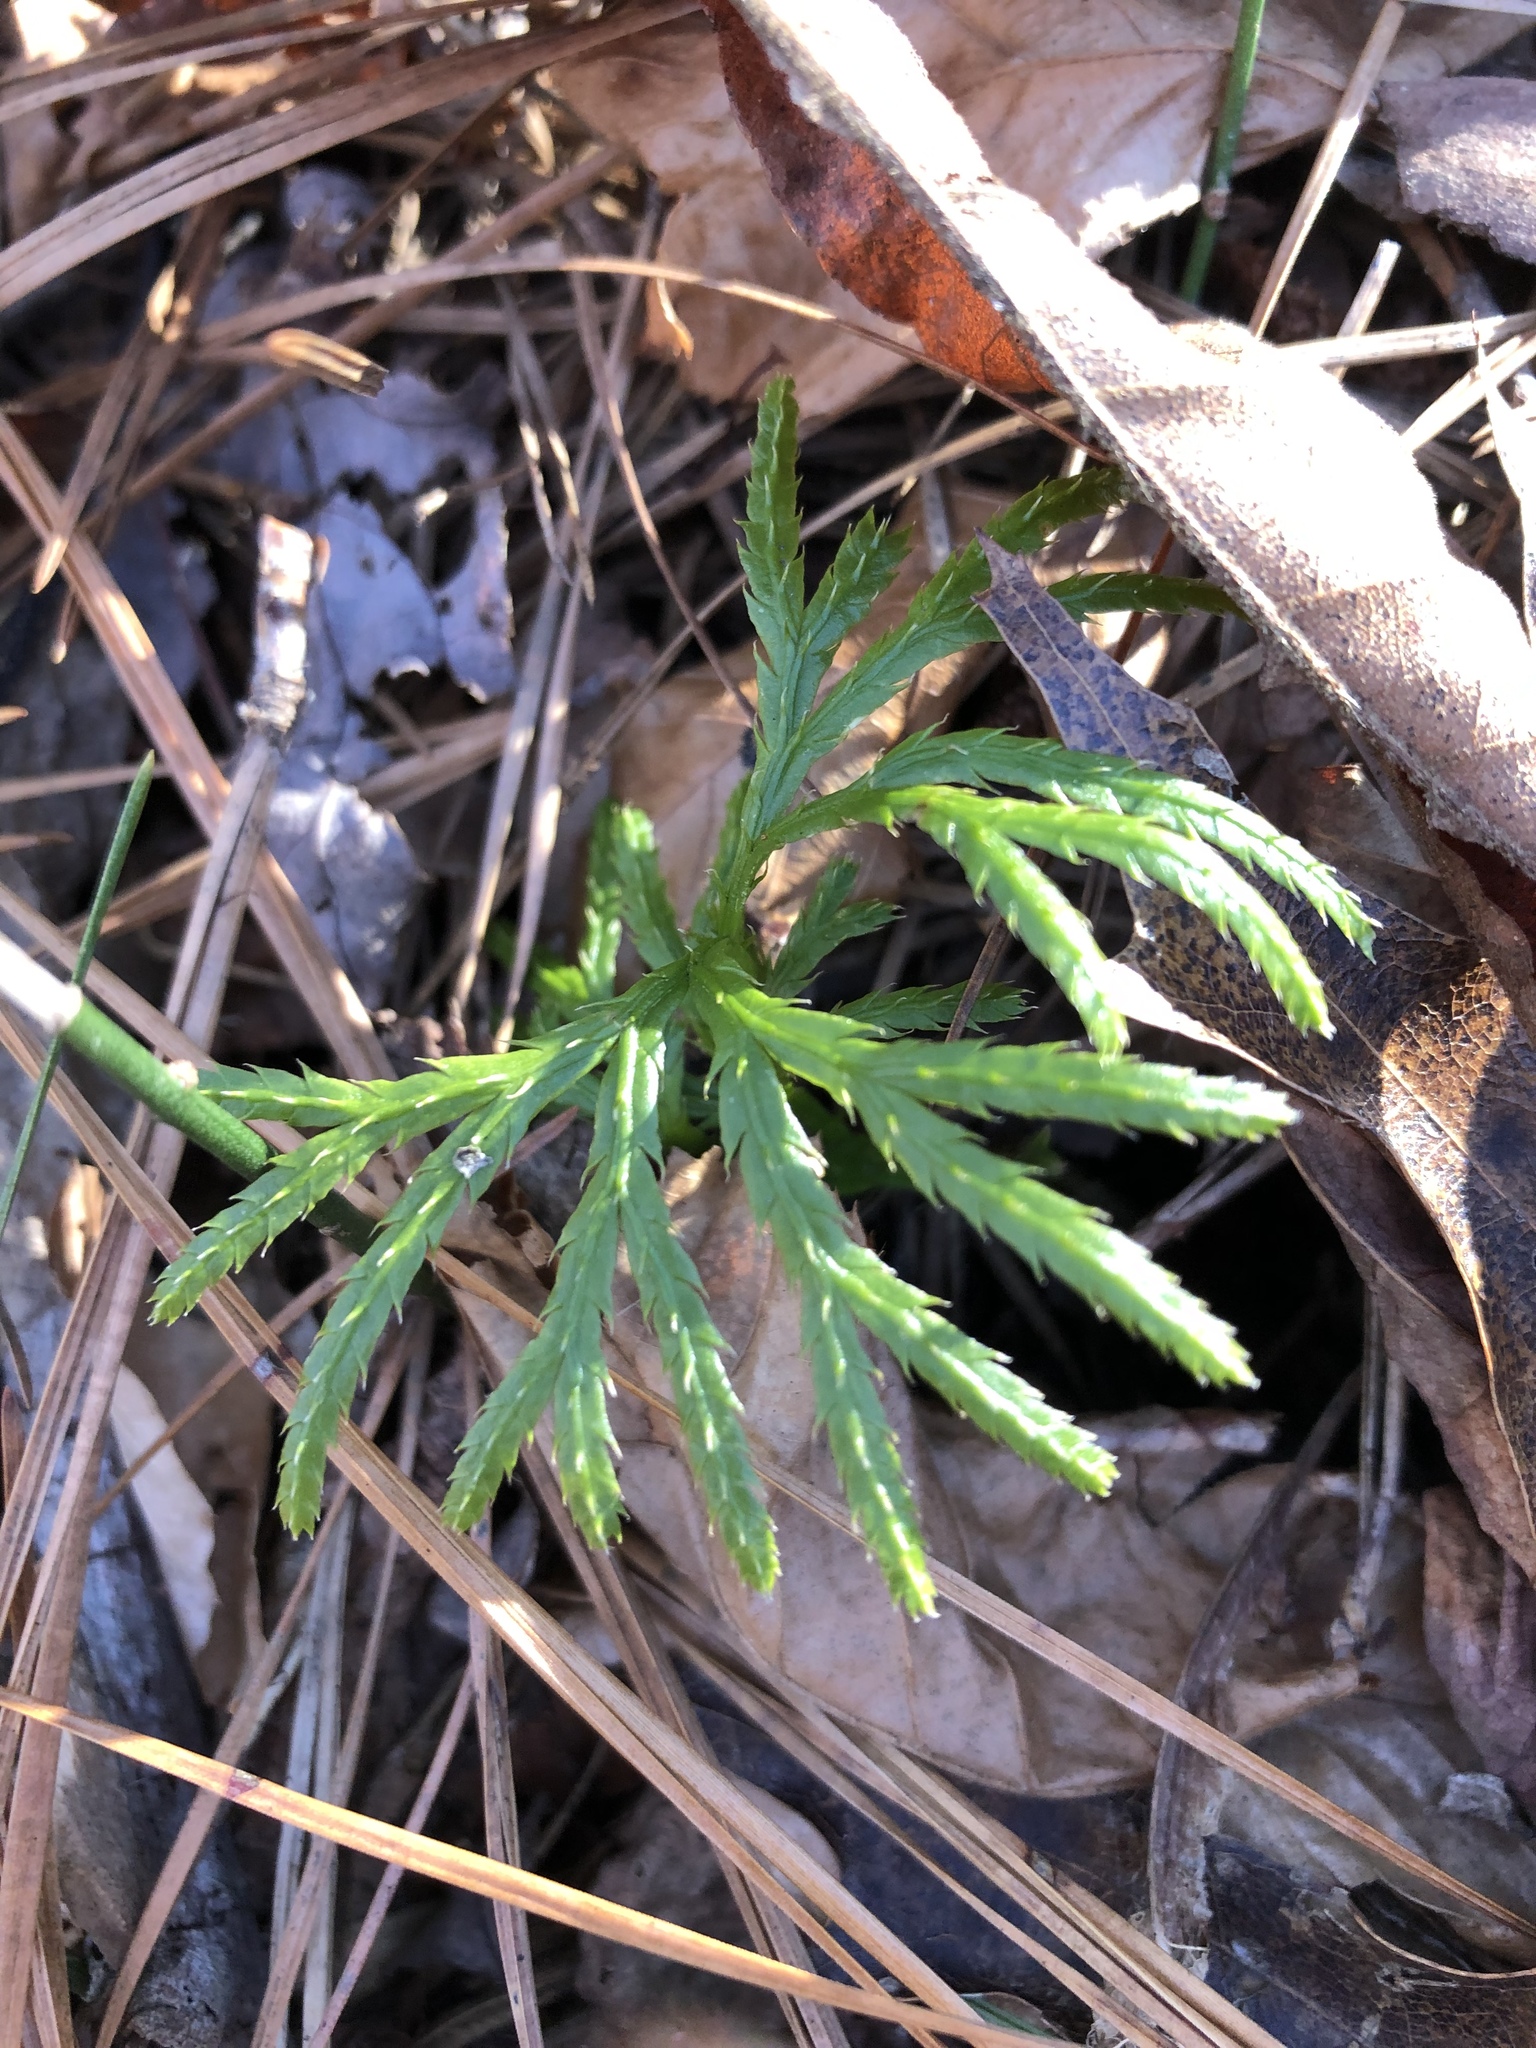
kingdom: Plantae
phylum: Tracheophyta
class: Lycopodiopsida
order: Lycopodiales
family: Lycopodiaceae
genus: Diphasiastrum
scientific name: Diphasiastrum digitatum
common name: Southern running-pine
